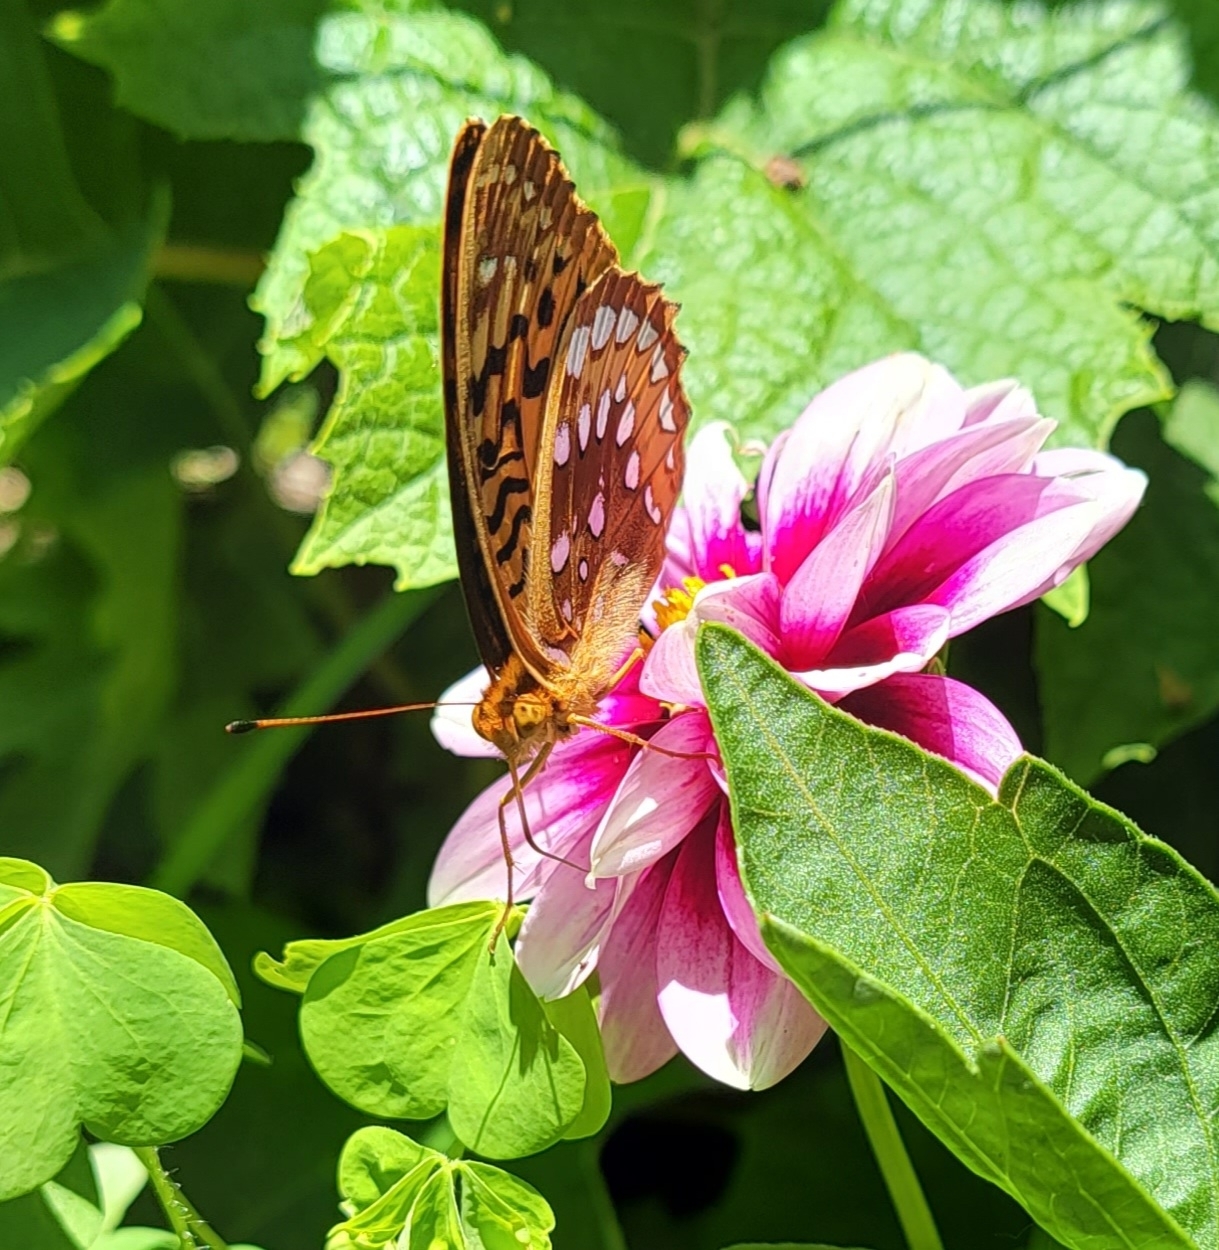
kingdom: Animalia
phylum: Arthropoda
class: Insecta
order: Lepidoptera
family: Nymphalidae
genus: Speyeria
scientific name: Speyeria cybele
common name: Great spangled fritillary
